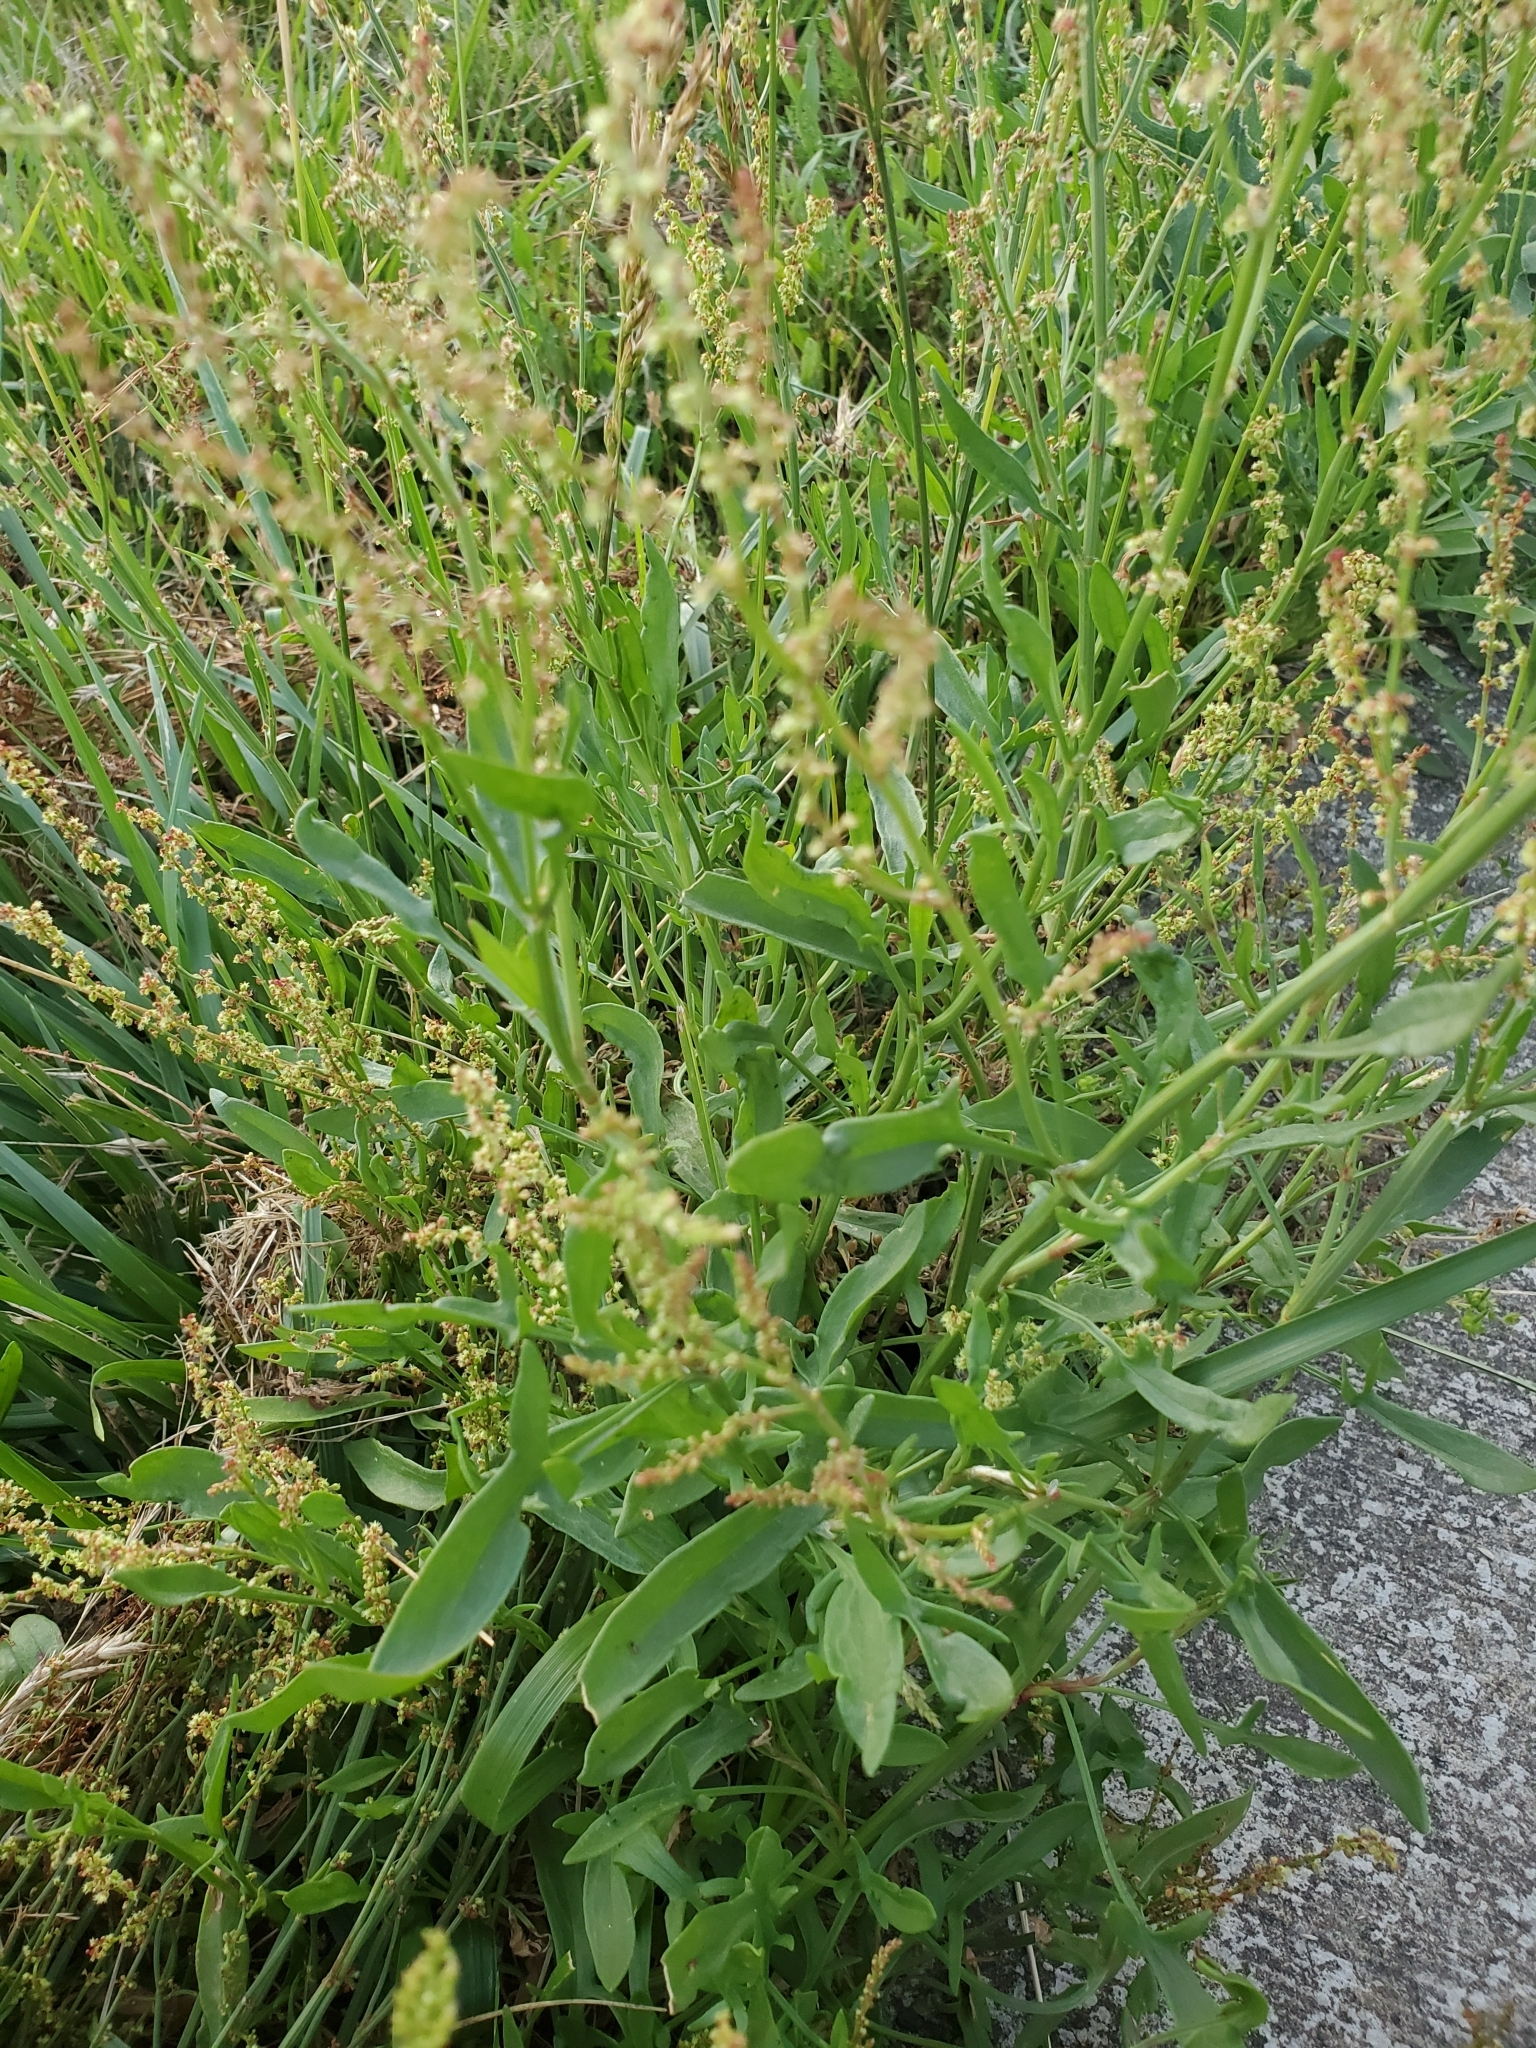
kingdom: Plantae
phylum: Tracheophyta
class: Magnoliopsida
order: Caryophyllales
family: Polygonaceae
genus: Rumex
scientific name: Rumex acetosella
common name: Common sheep sorrel
